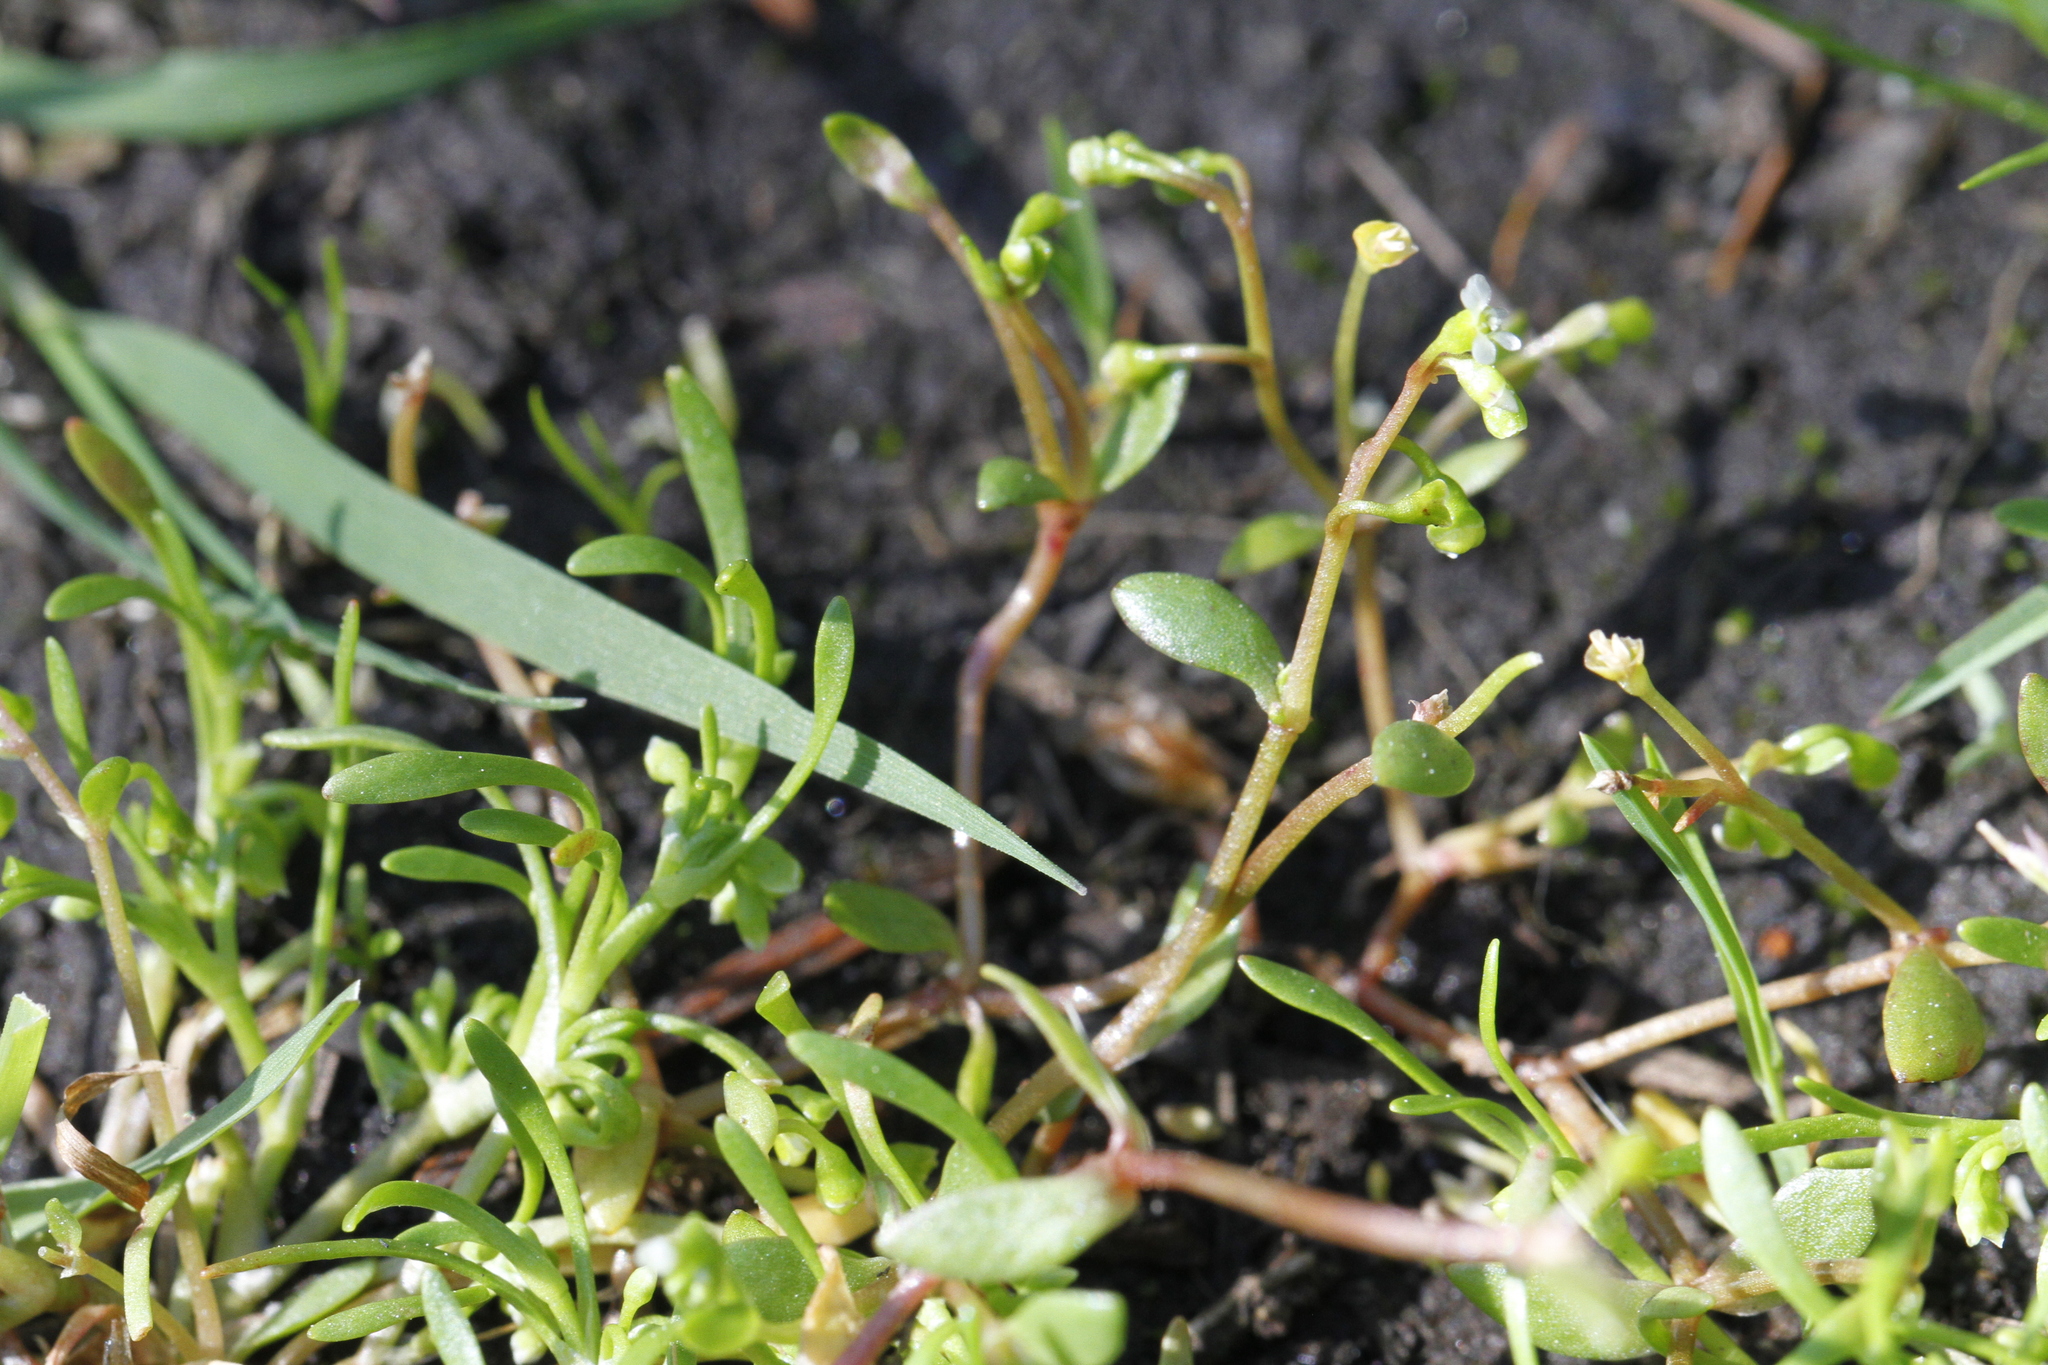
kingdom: Plantae
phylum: Tracheophyta
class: Magnoliopsida
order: Caryophyllales
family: Montiaceae
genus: Montia
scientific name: Montia fontana
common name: Blinks
